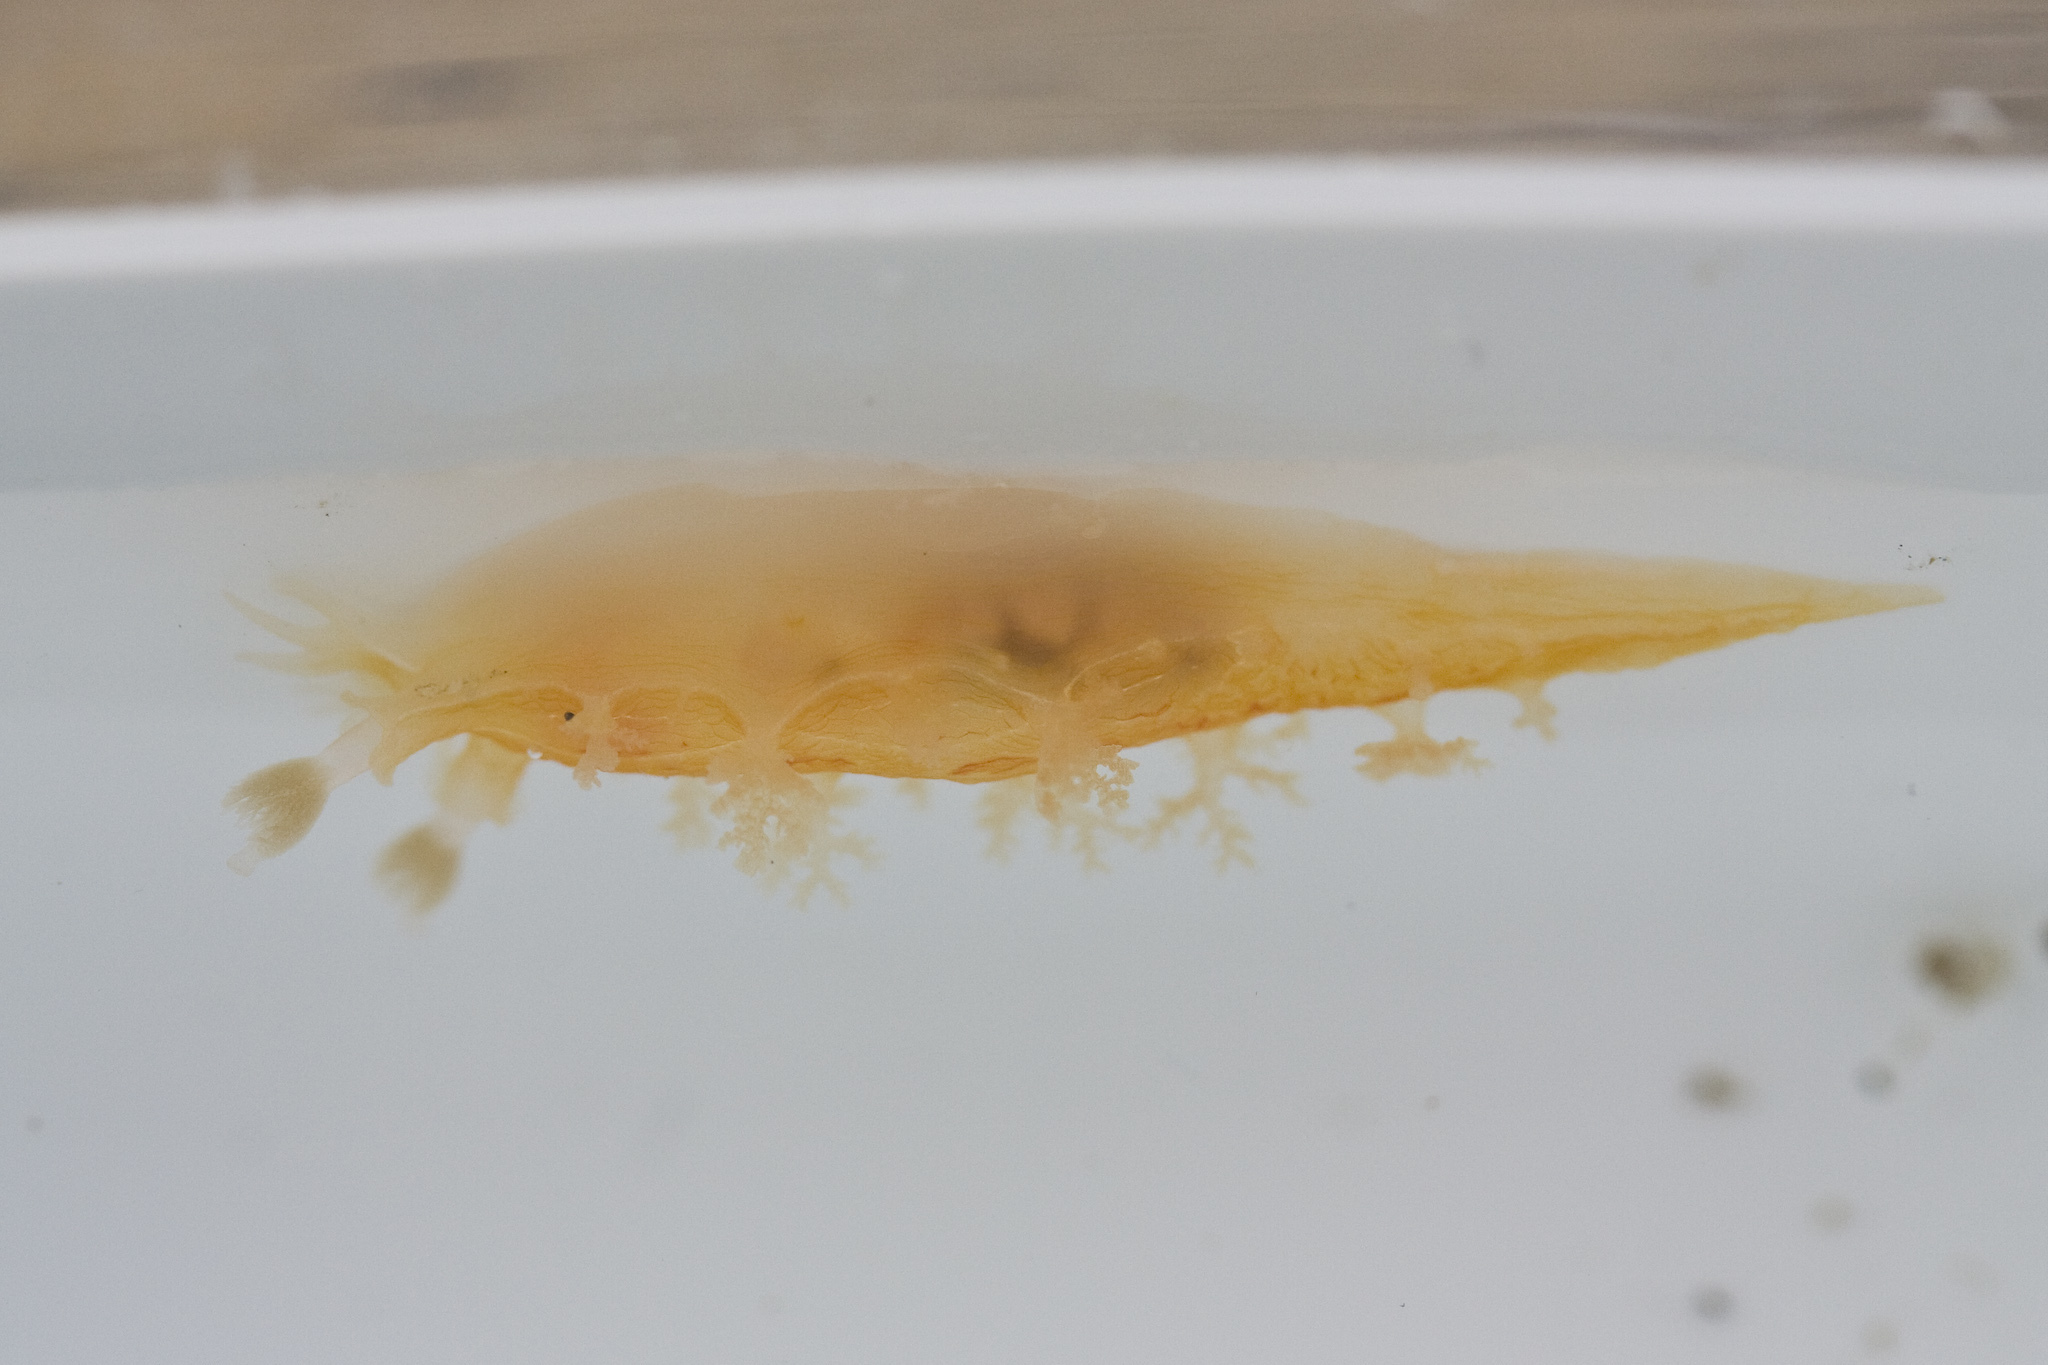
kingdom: Animalia
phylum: Mollusca
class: Gastropoda
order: Nudibranchia
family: Tritoniidae
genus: Tritonia
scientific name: Tritonia festiva
